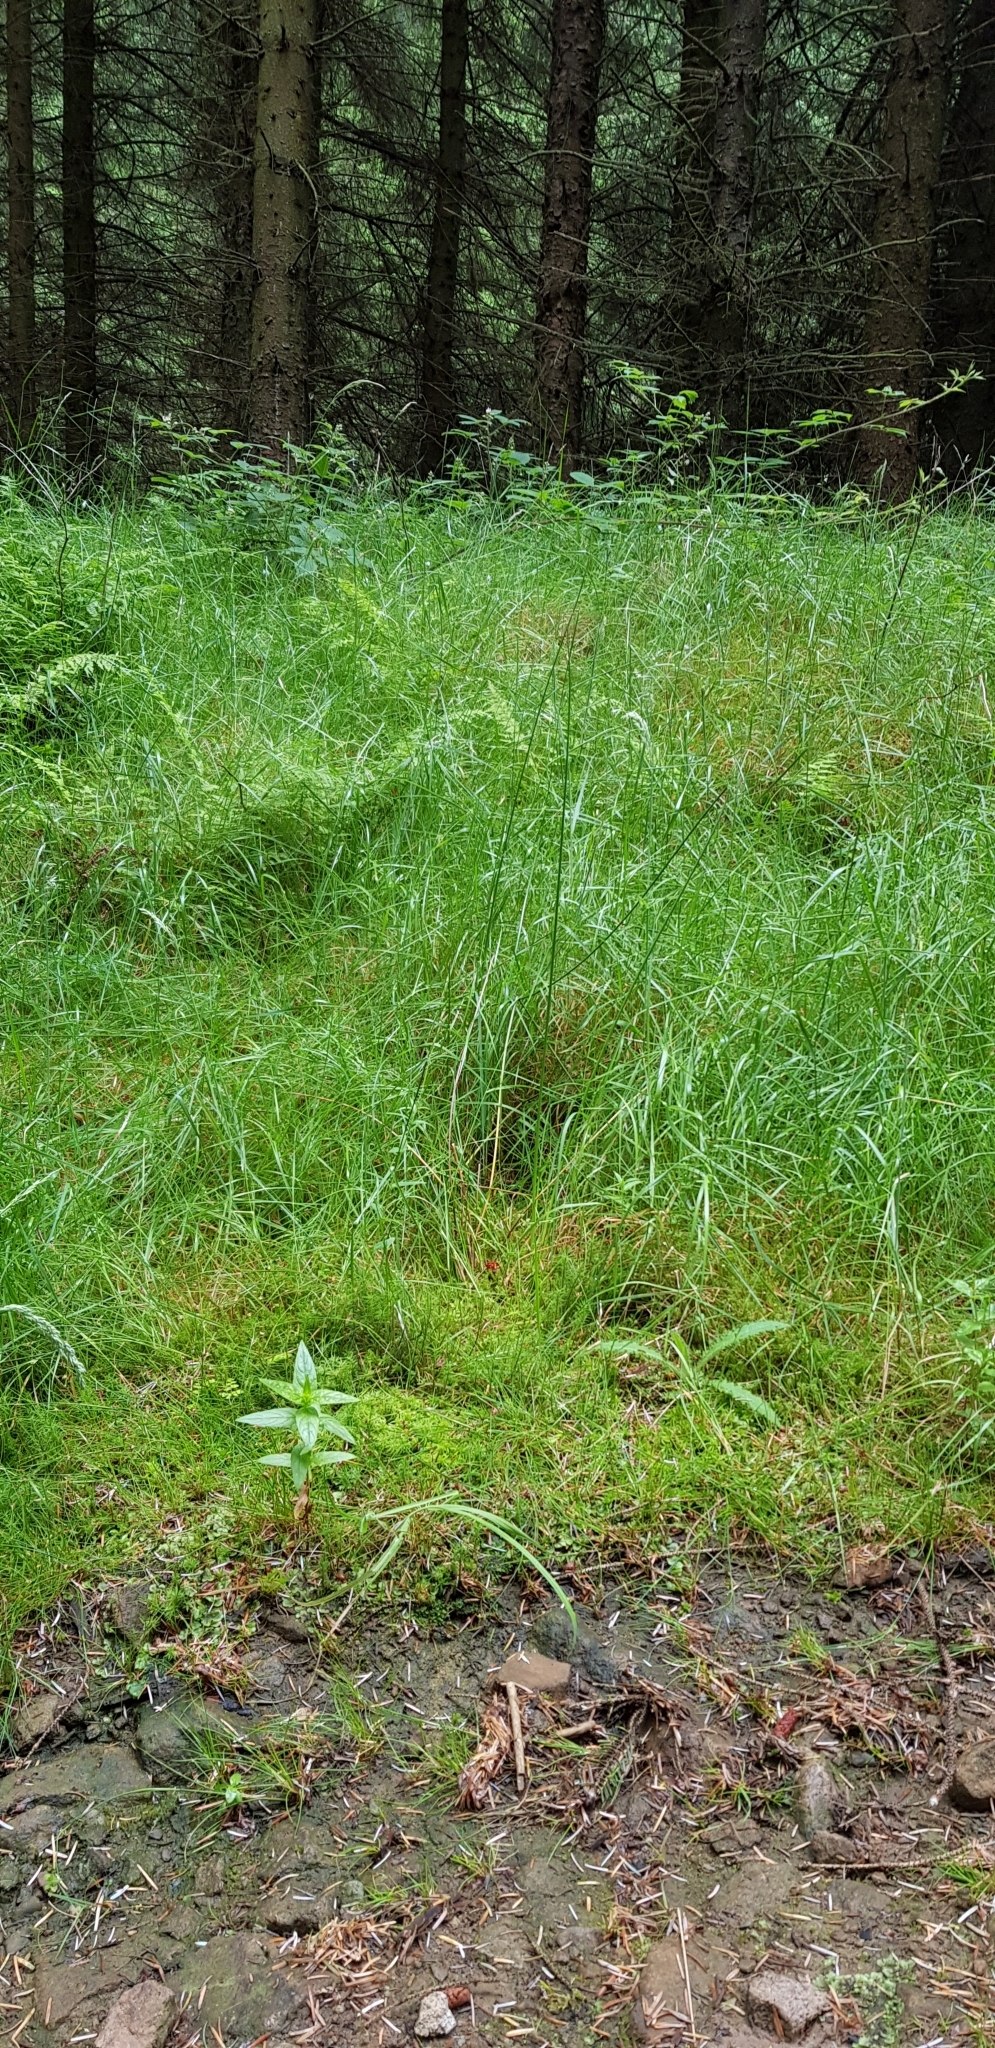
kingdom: Plantae
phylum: Bryophyta
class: Polytrichopsida
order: Polytrichales
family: Polytrichaceae
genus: Atrichum
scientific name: Atrichum undulatum
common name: Common smoothcap
